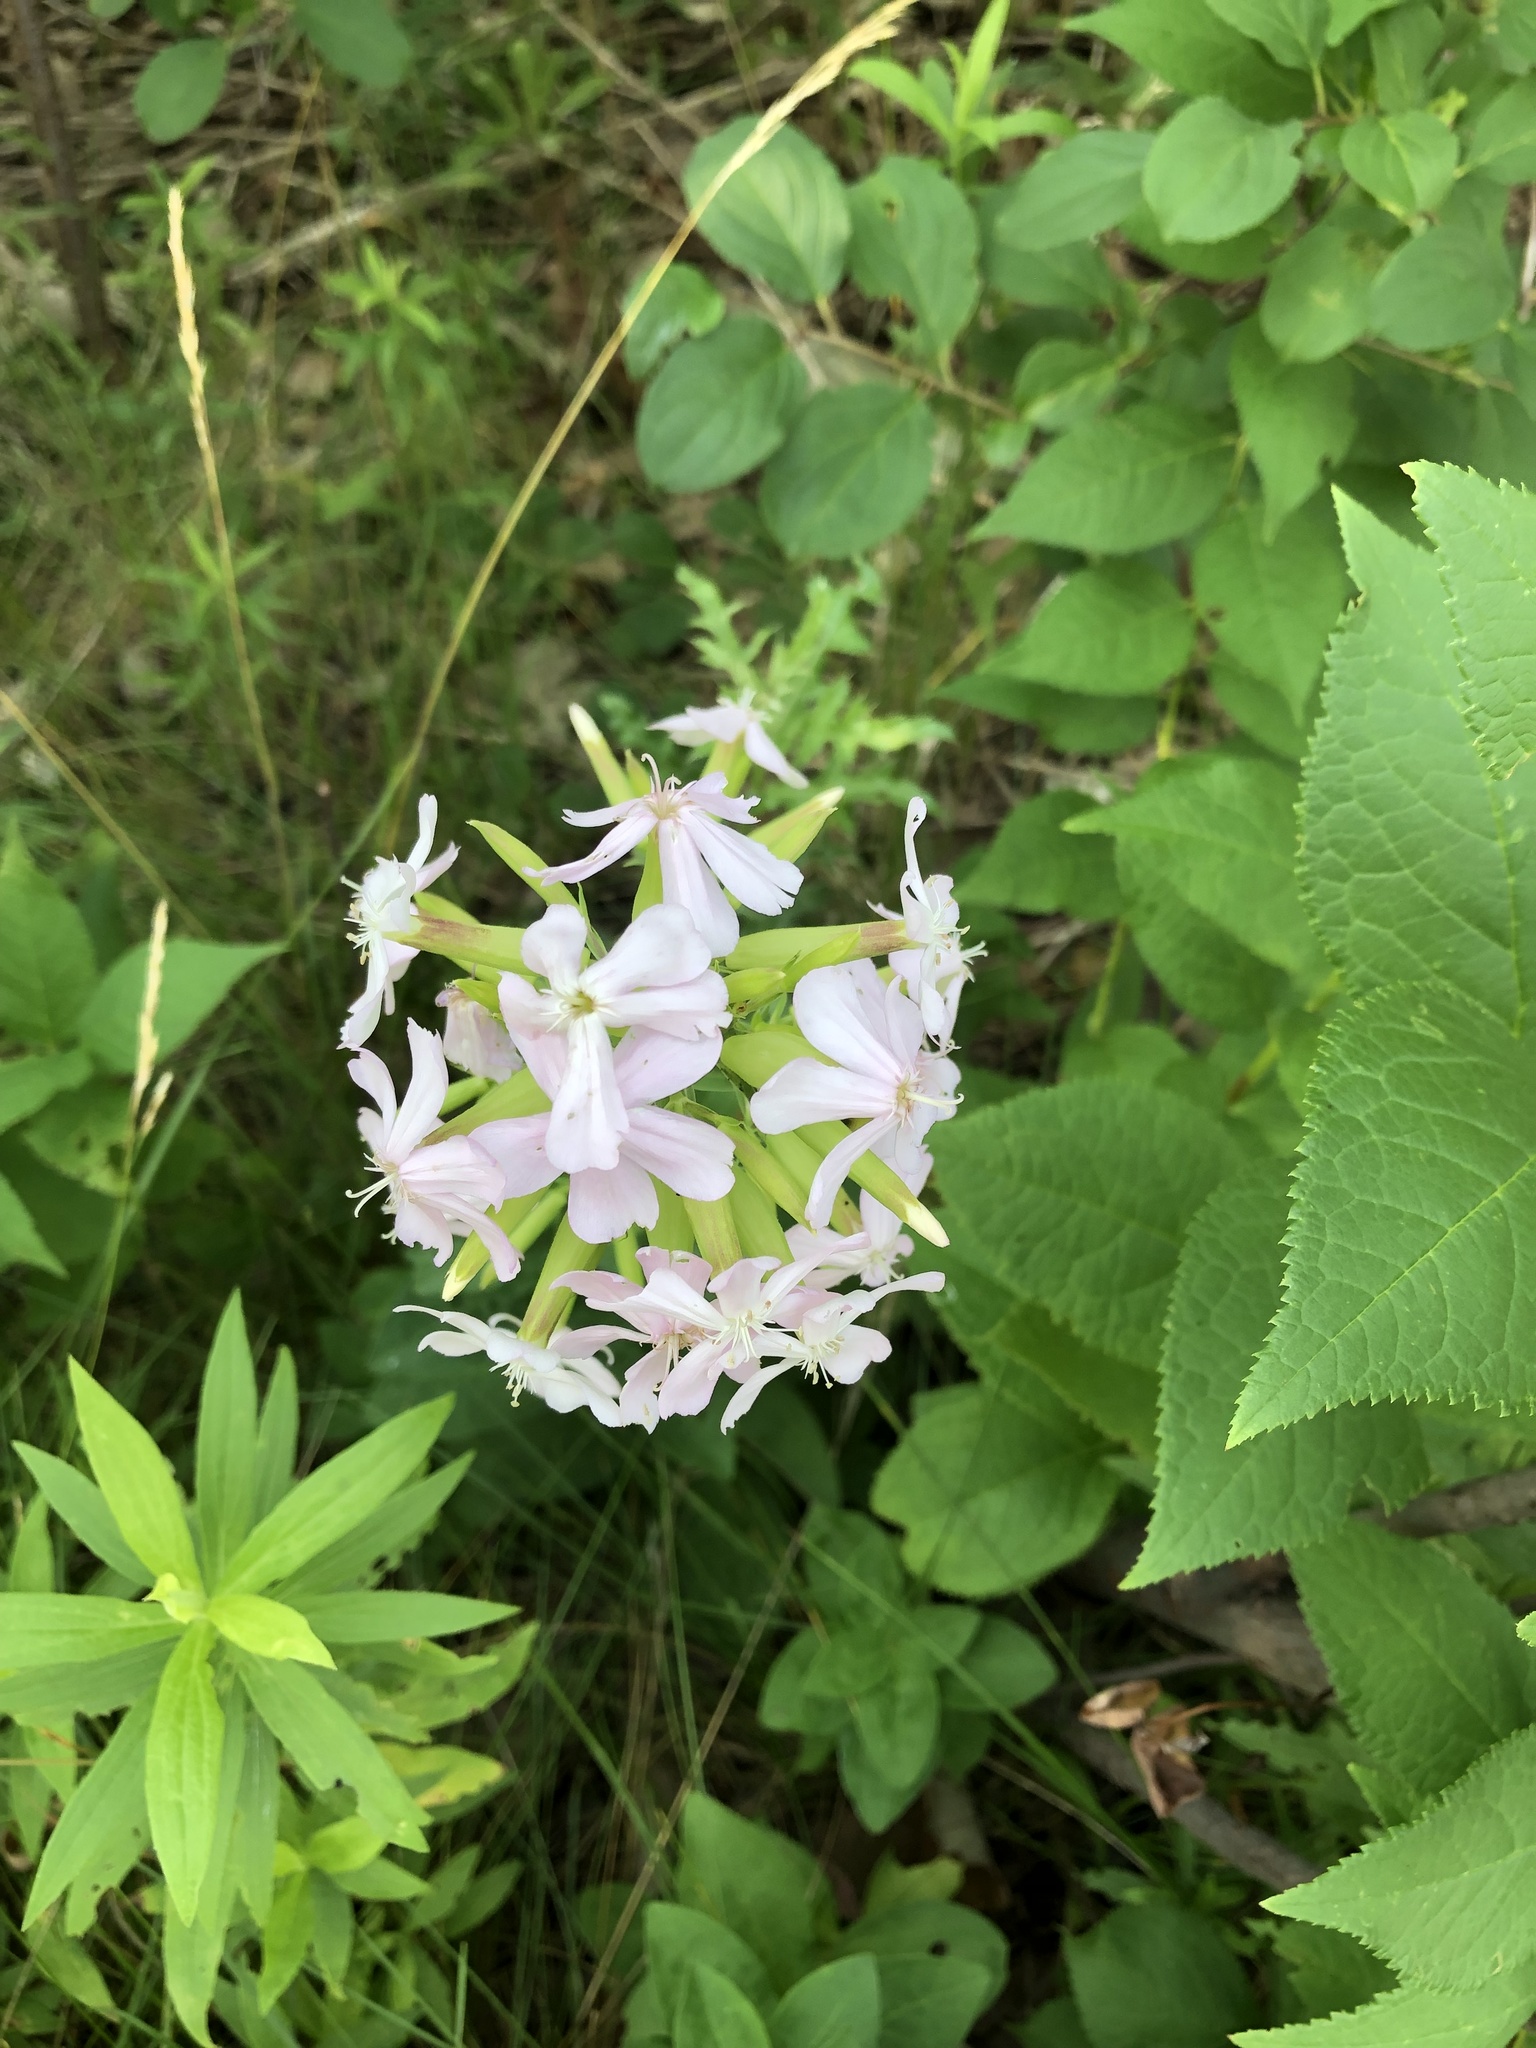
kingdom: Plantae
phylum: Tracheophyta
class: Magnoliopsida
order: Caryophyllales
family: Caryophyllaceae
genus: Saponaria
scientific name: Saponaria officinalis
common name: Soapwort
